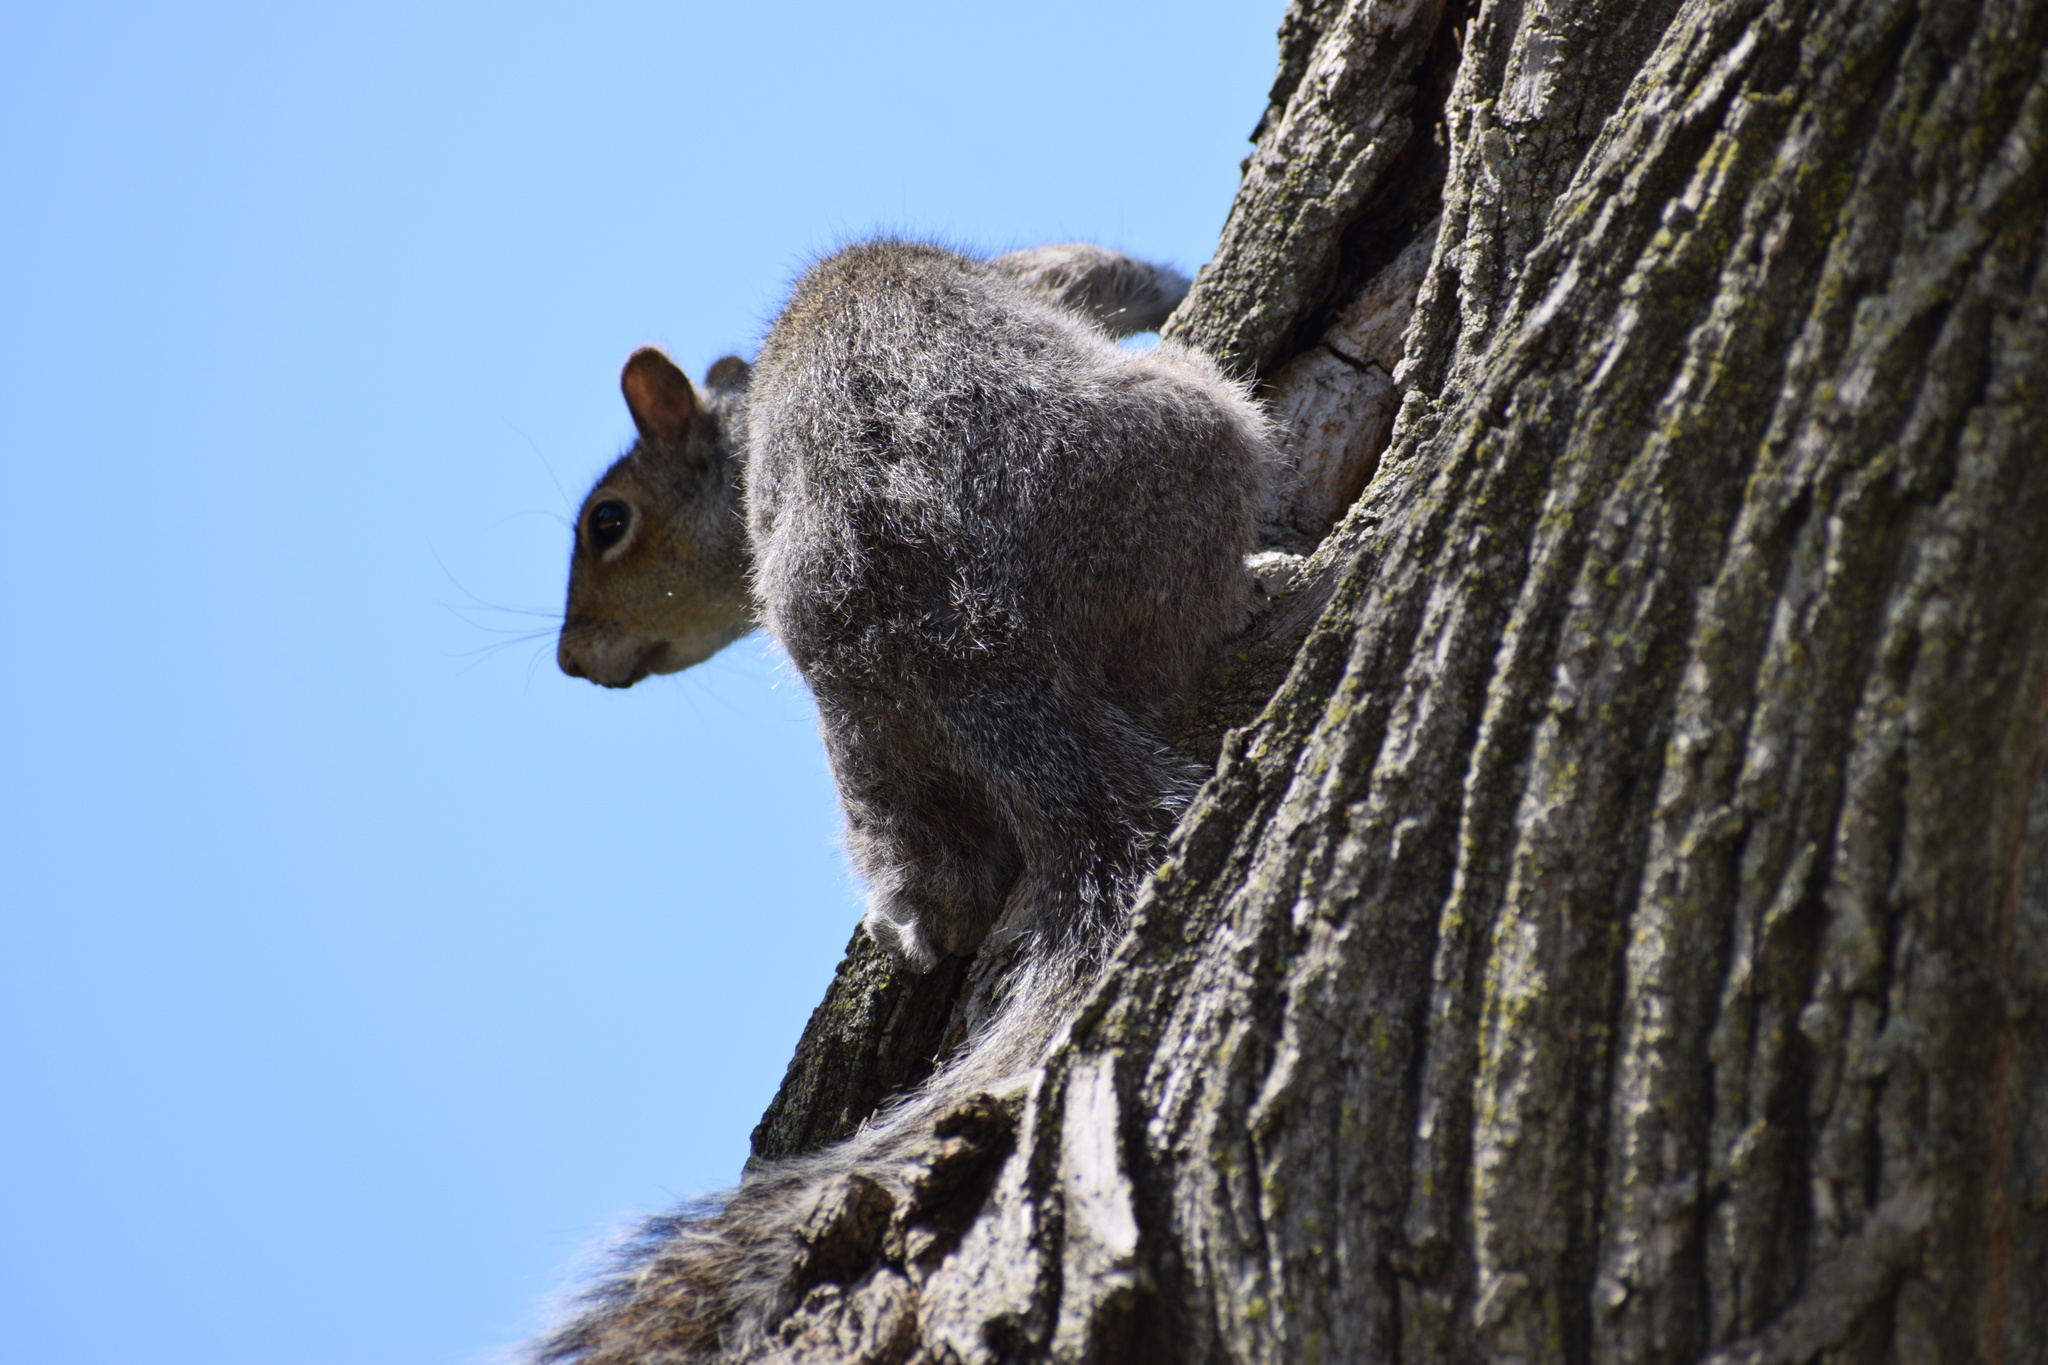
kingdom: Animalia
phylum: Chordata
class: Mammalia
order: Rodentia
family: Sciuridae
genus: Sciurus
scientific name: Sciurus carolinensis
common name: Eastern gray squirrel
